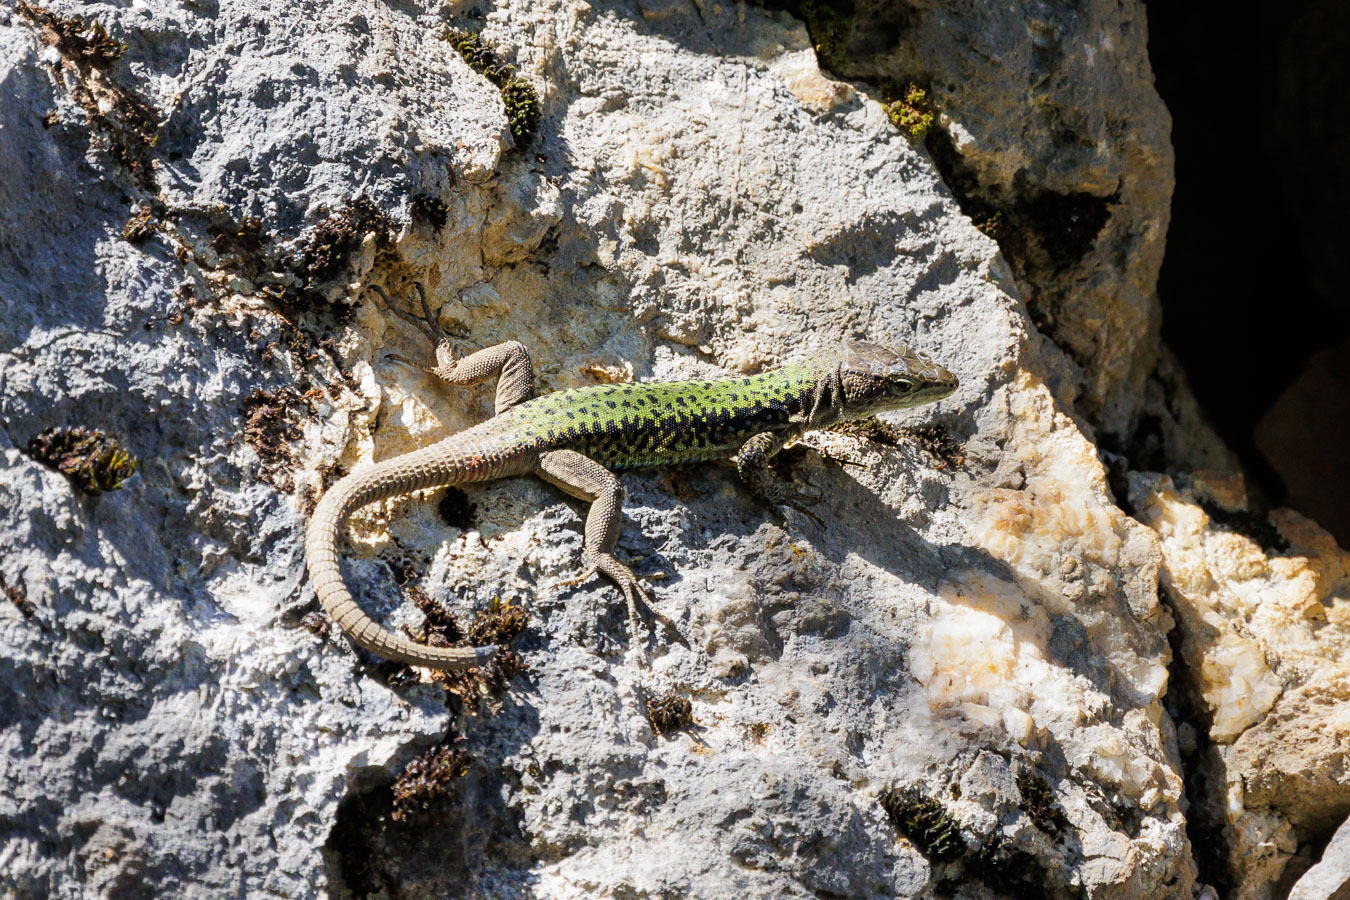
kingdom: Animalia
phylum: Chordata
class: Squamata
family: Lacertidae
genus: Darevskia
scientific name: Darevskia brauneri
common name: Brauner's rock lizard
